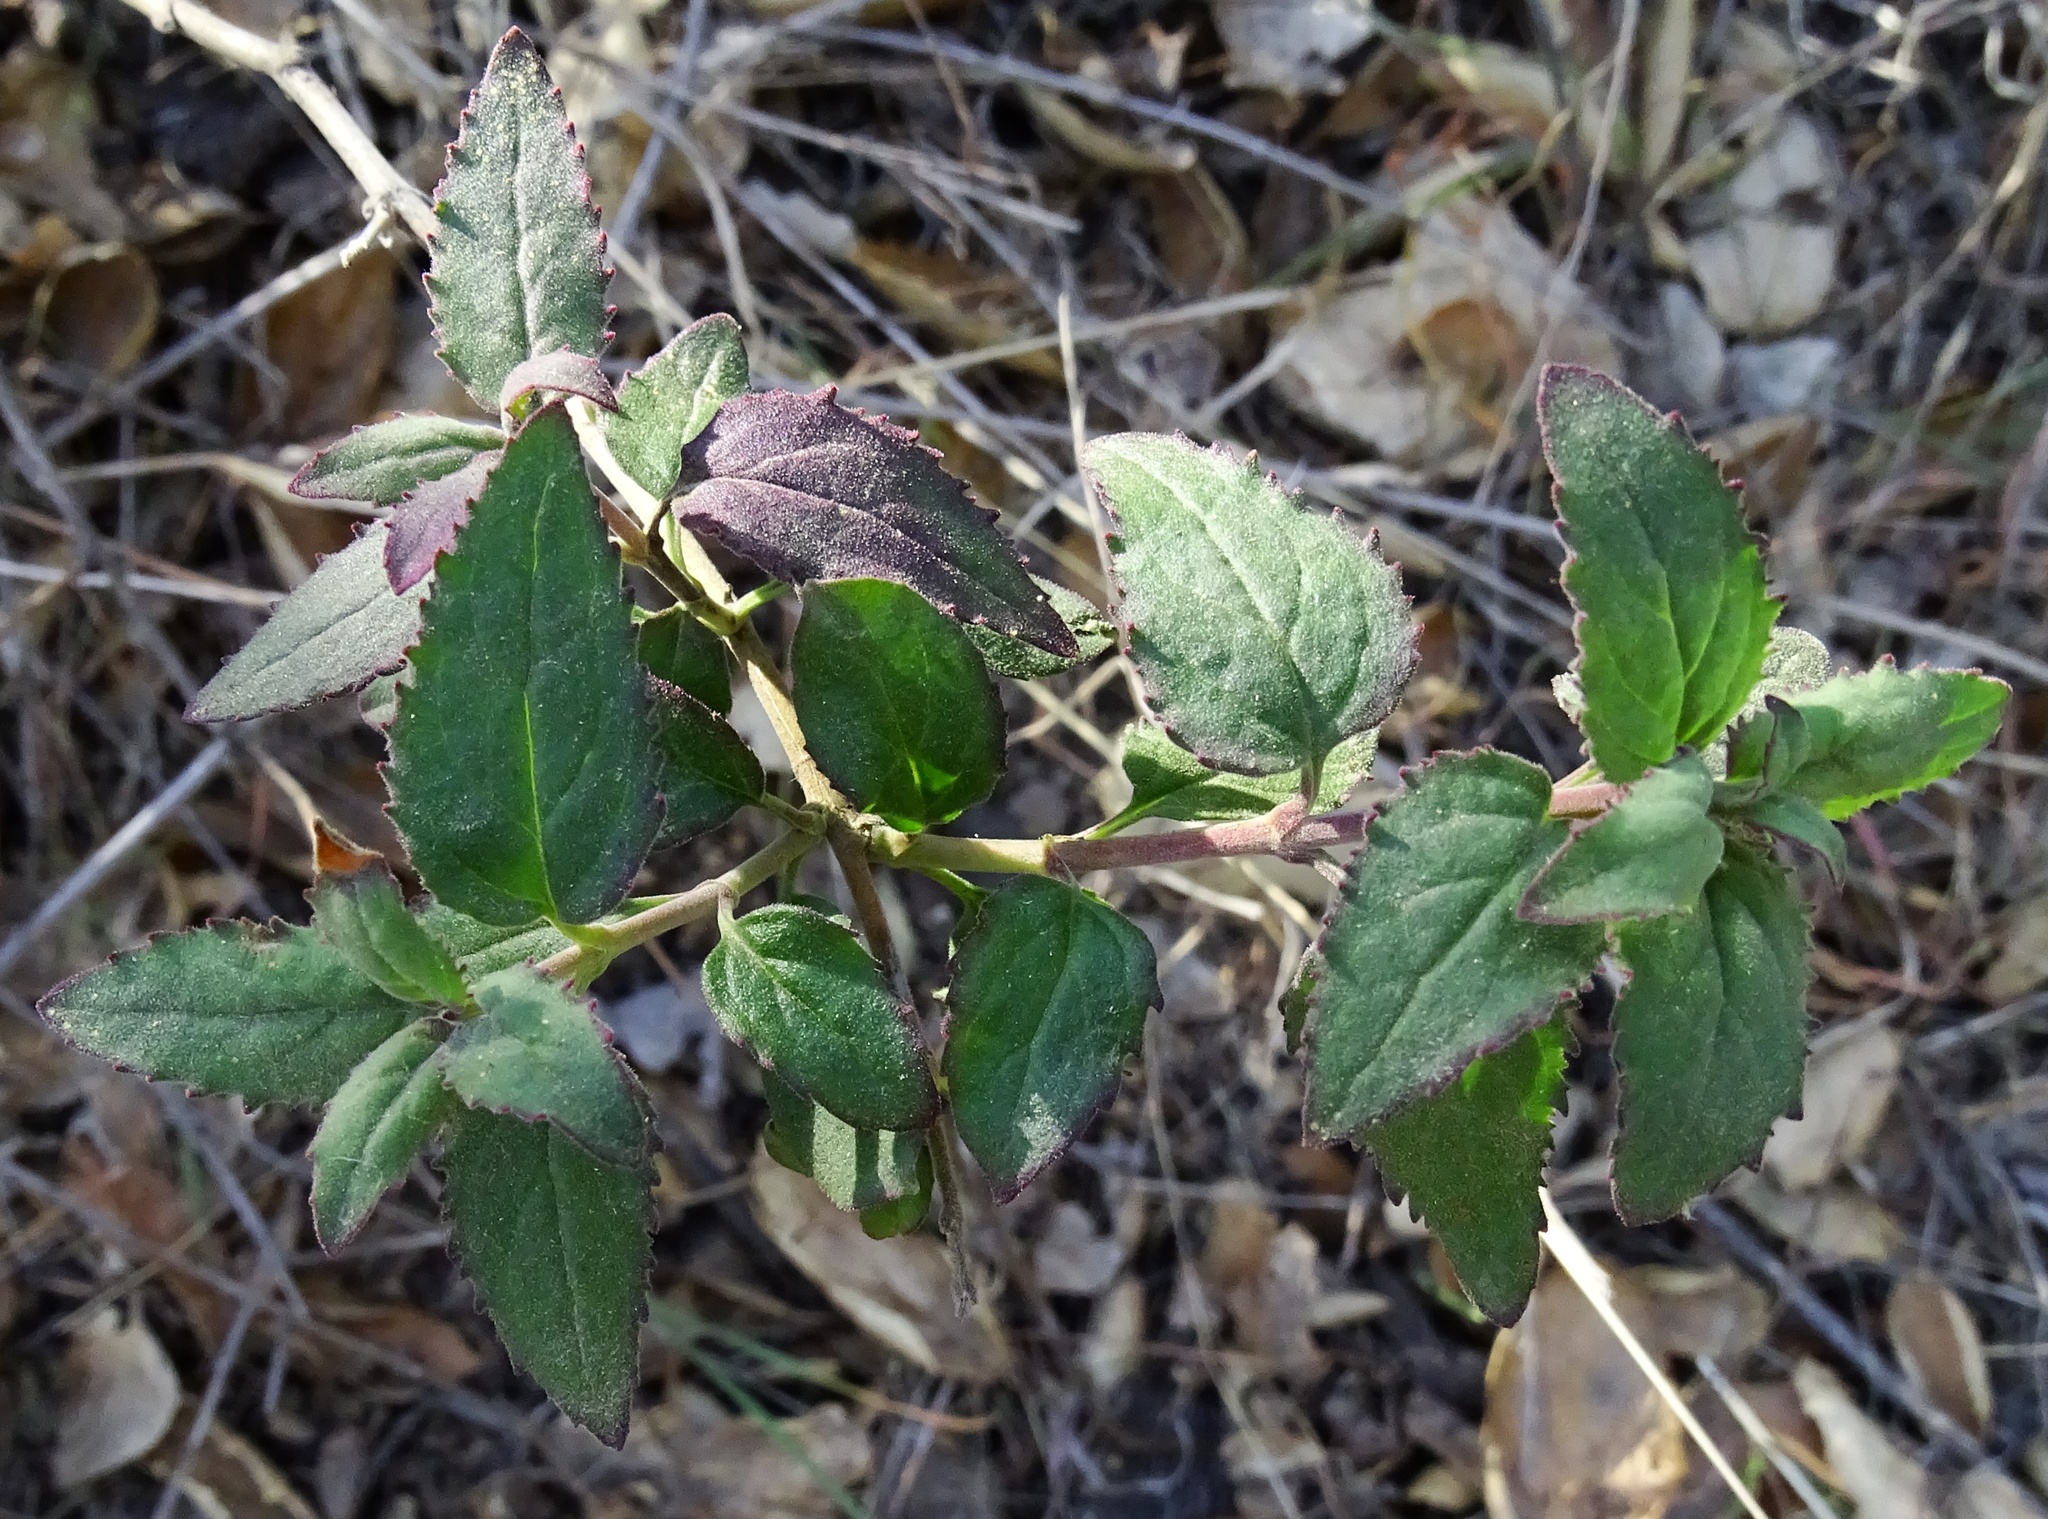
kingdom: Plantae
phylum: Tracheophyta
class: Magnoliopsida
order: Lamiales
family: Plantaginaceae
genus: Keckiella
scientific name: Keckiella cordifolia
